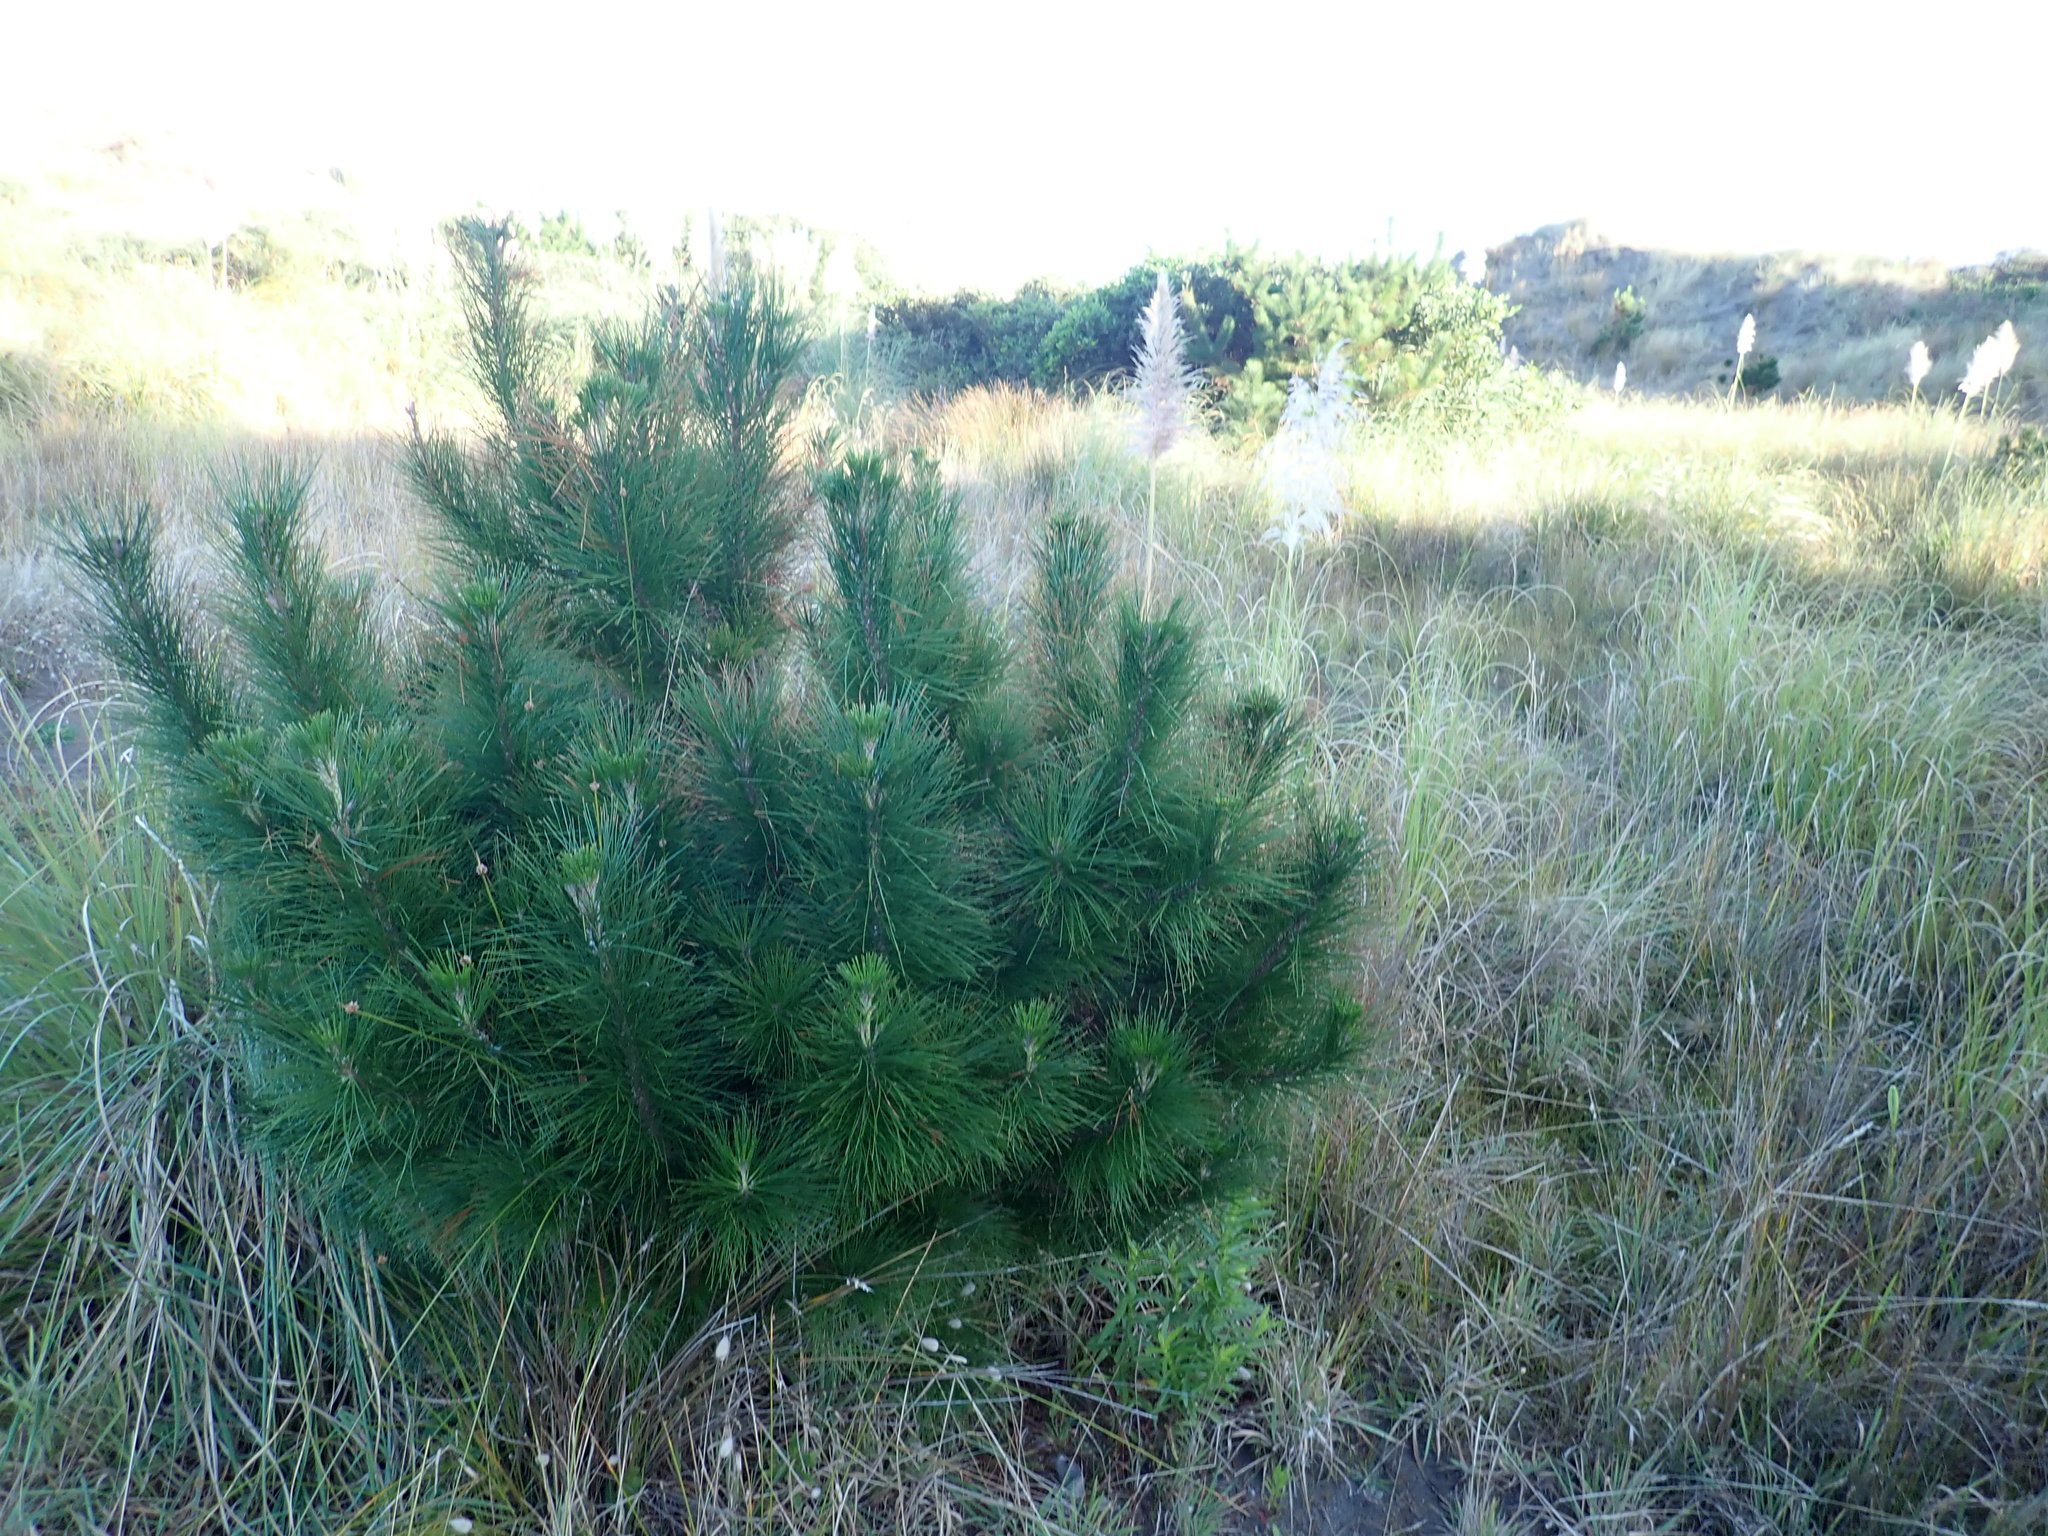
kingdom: Plantae
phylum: Tracheophyta
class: Pinopsida
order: Pinales
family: Pinaceae
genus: Pinus
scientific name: Pinus radiata
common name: Monterey pine
